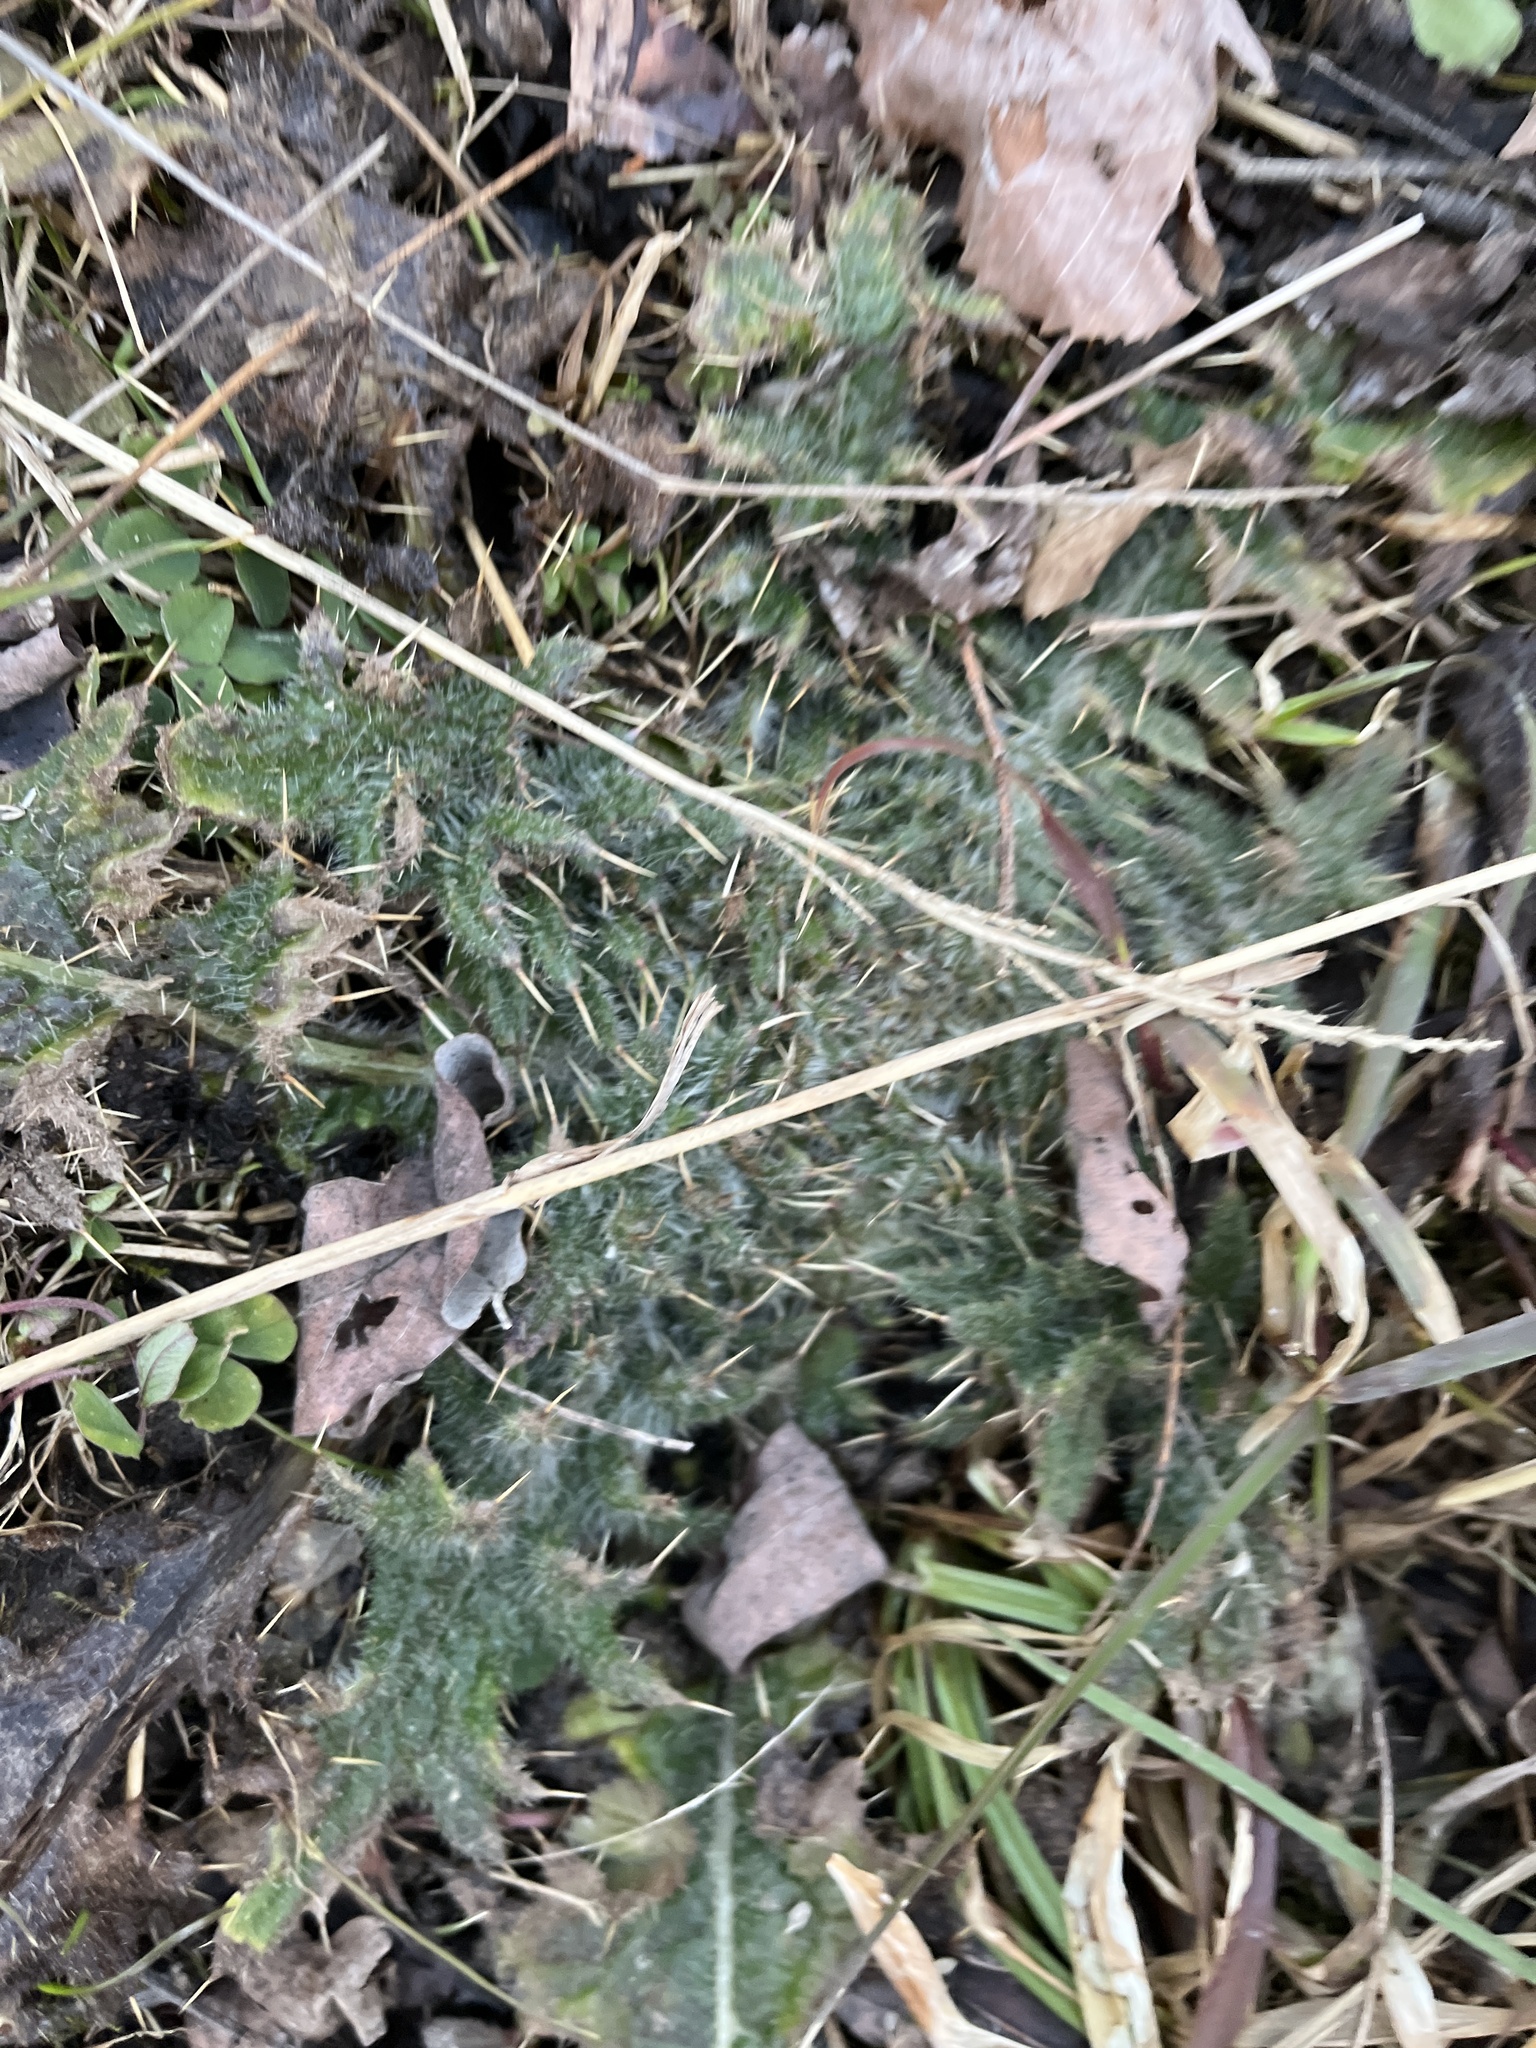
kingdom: Plantae
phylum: Tracheophyta
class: Magnoliopsida
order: Asterales
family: Asteraceae
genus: Cirsium
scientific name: Cirsium vulgare
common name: Bull thistle
